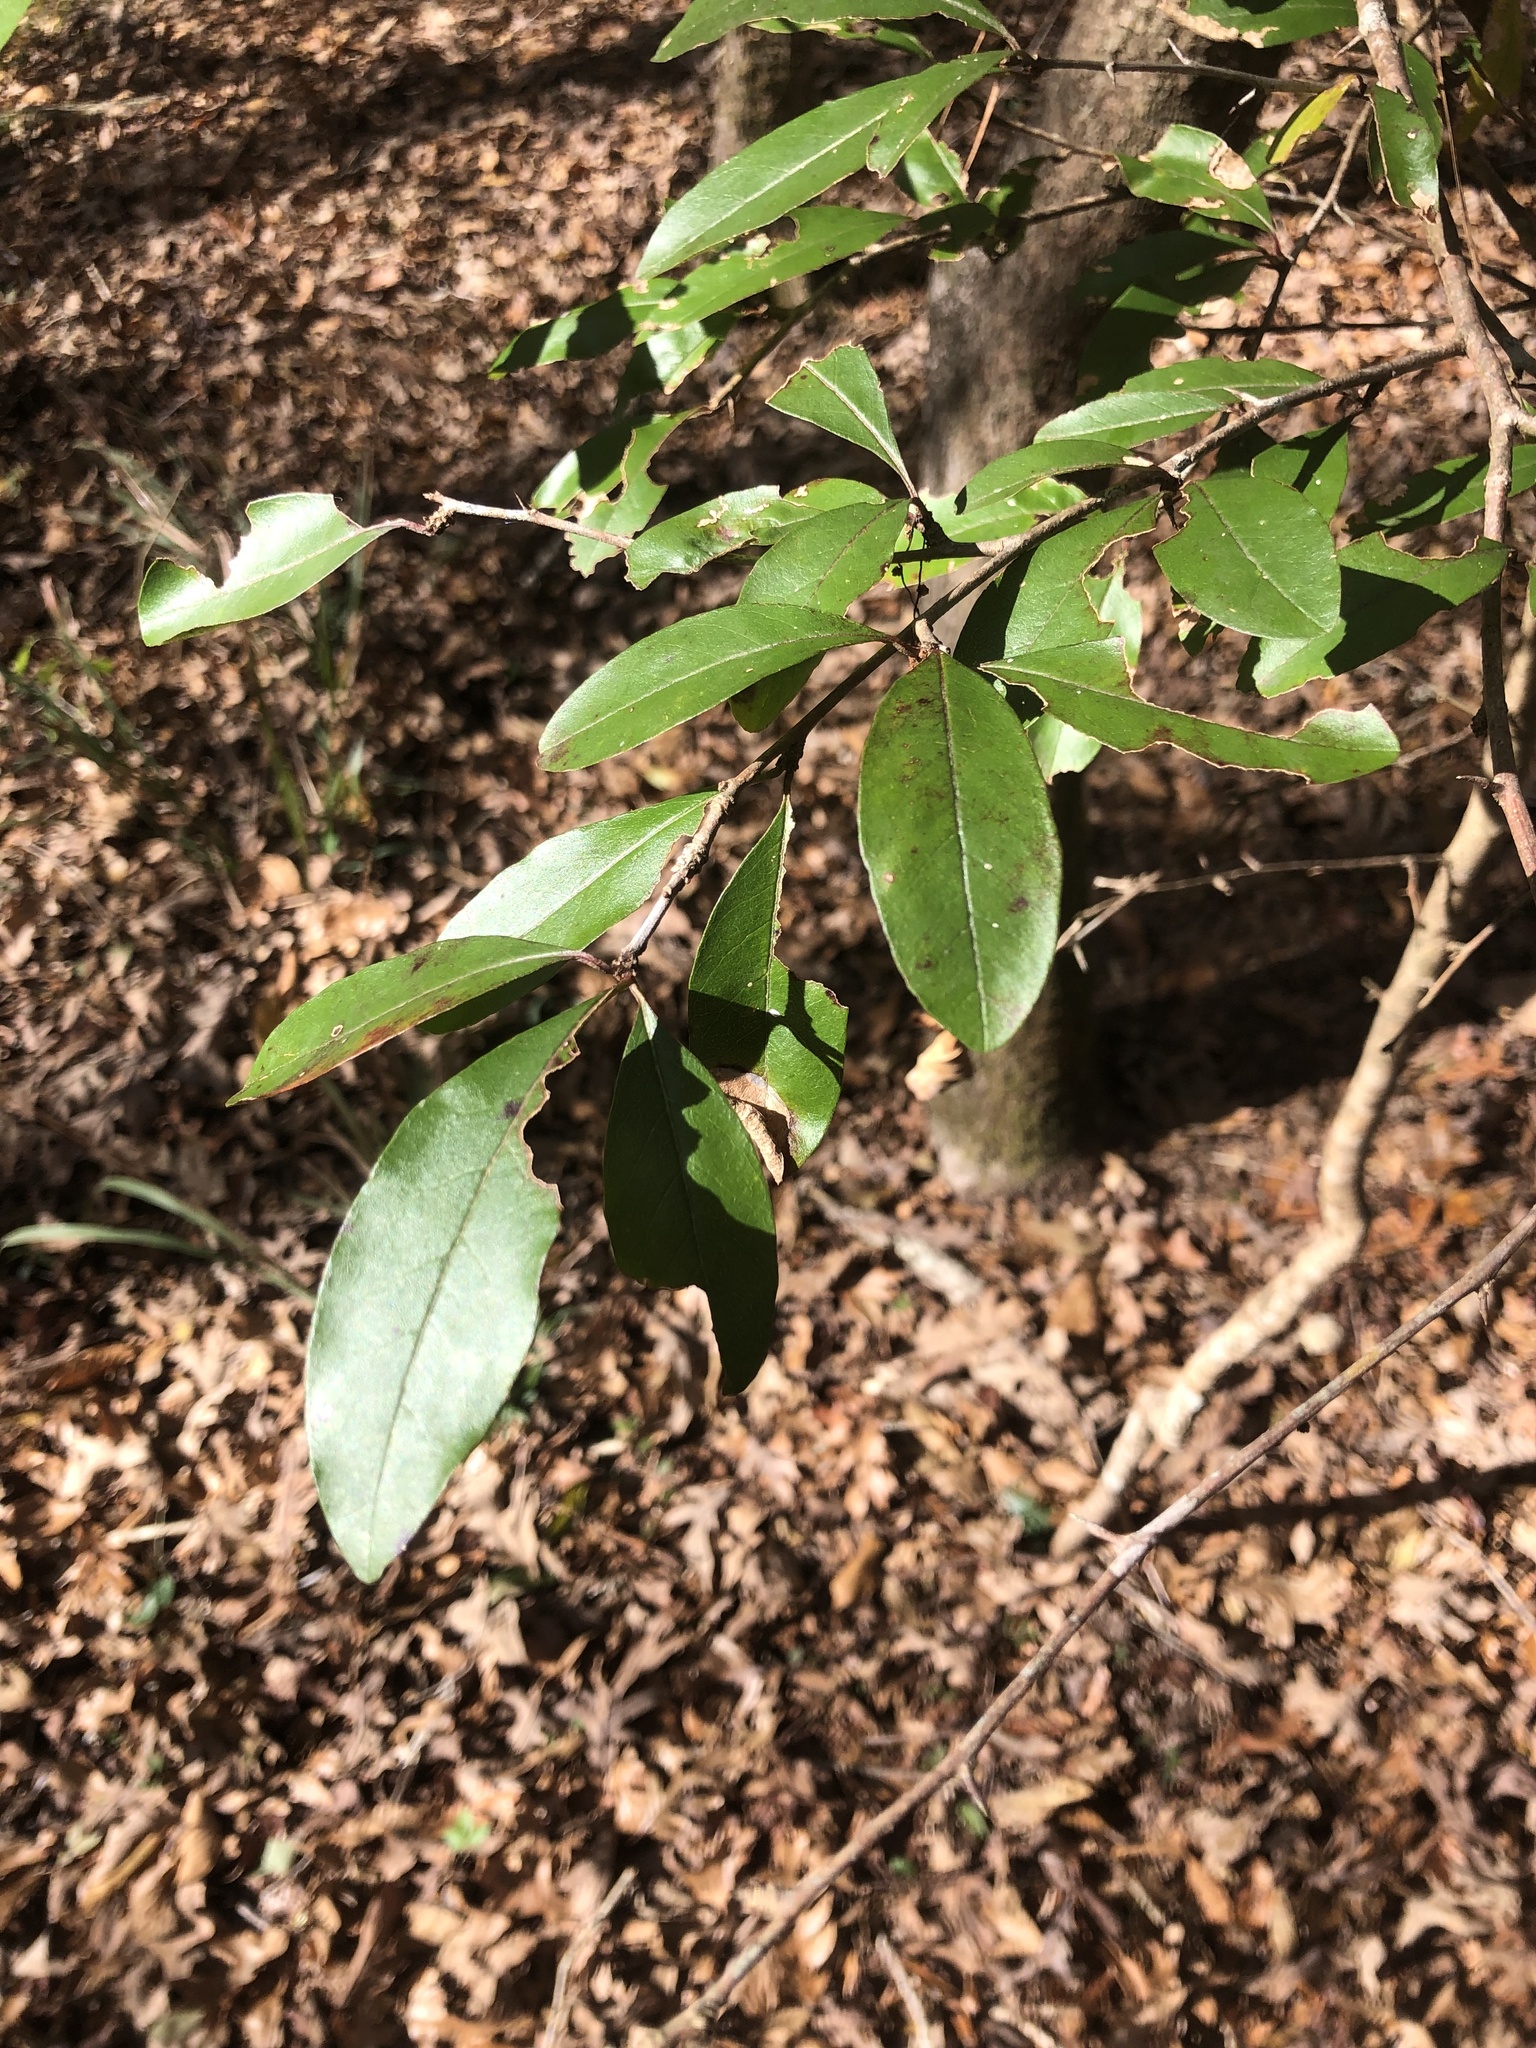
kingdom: Plantae
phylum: Tracheophyta
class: Magnoliopsida
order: Ericales
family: Sapotaceae
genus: Sideroxylon
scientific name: Sideroxylon lanuginosum
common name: Chittamwood
